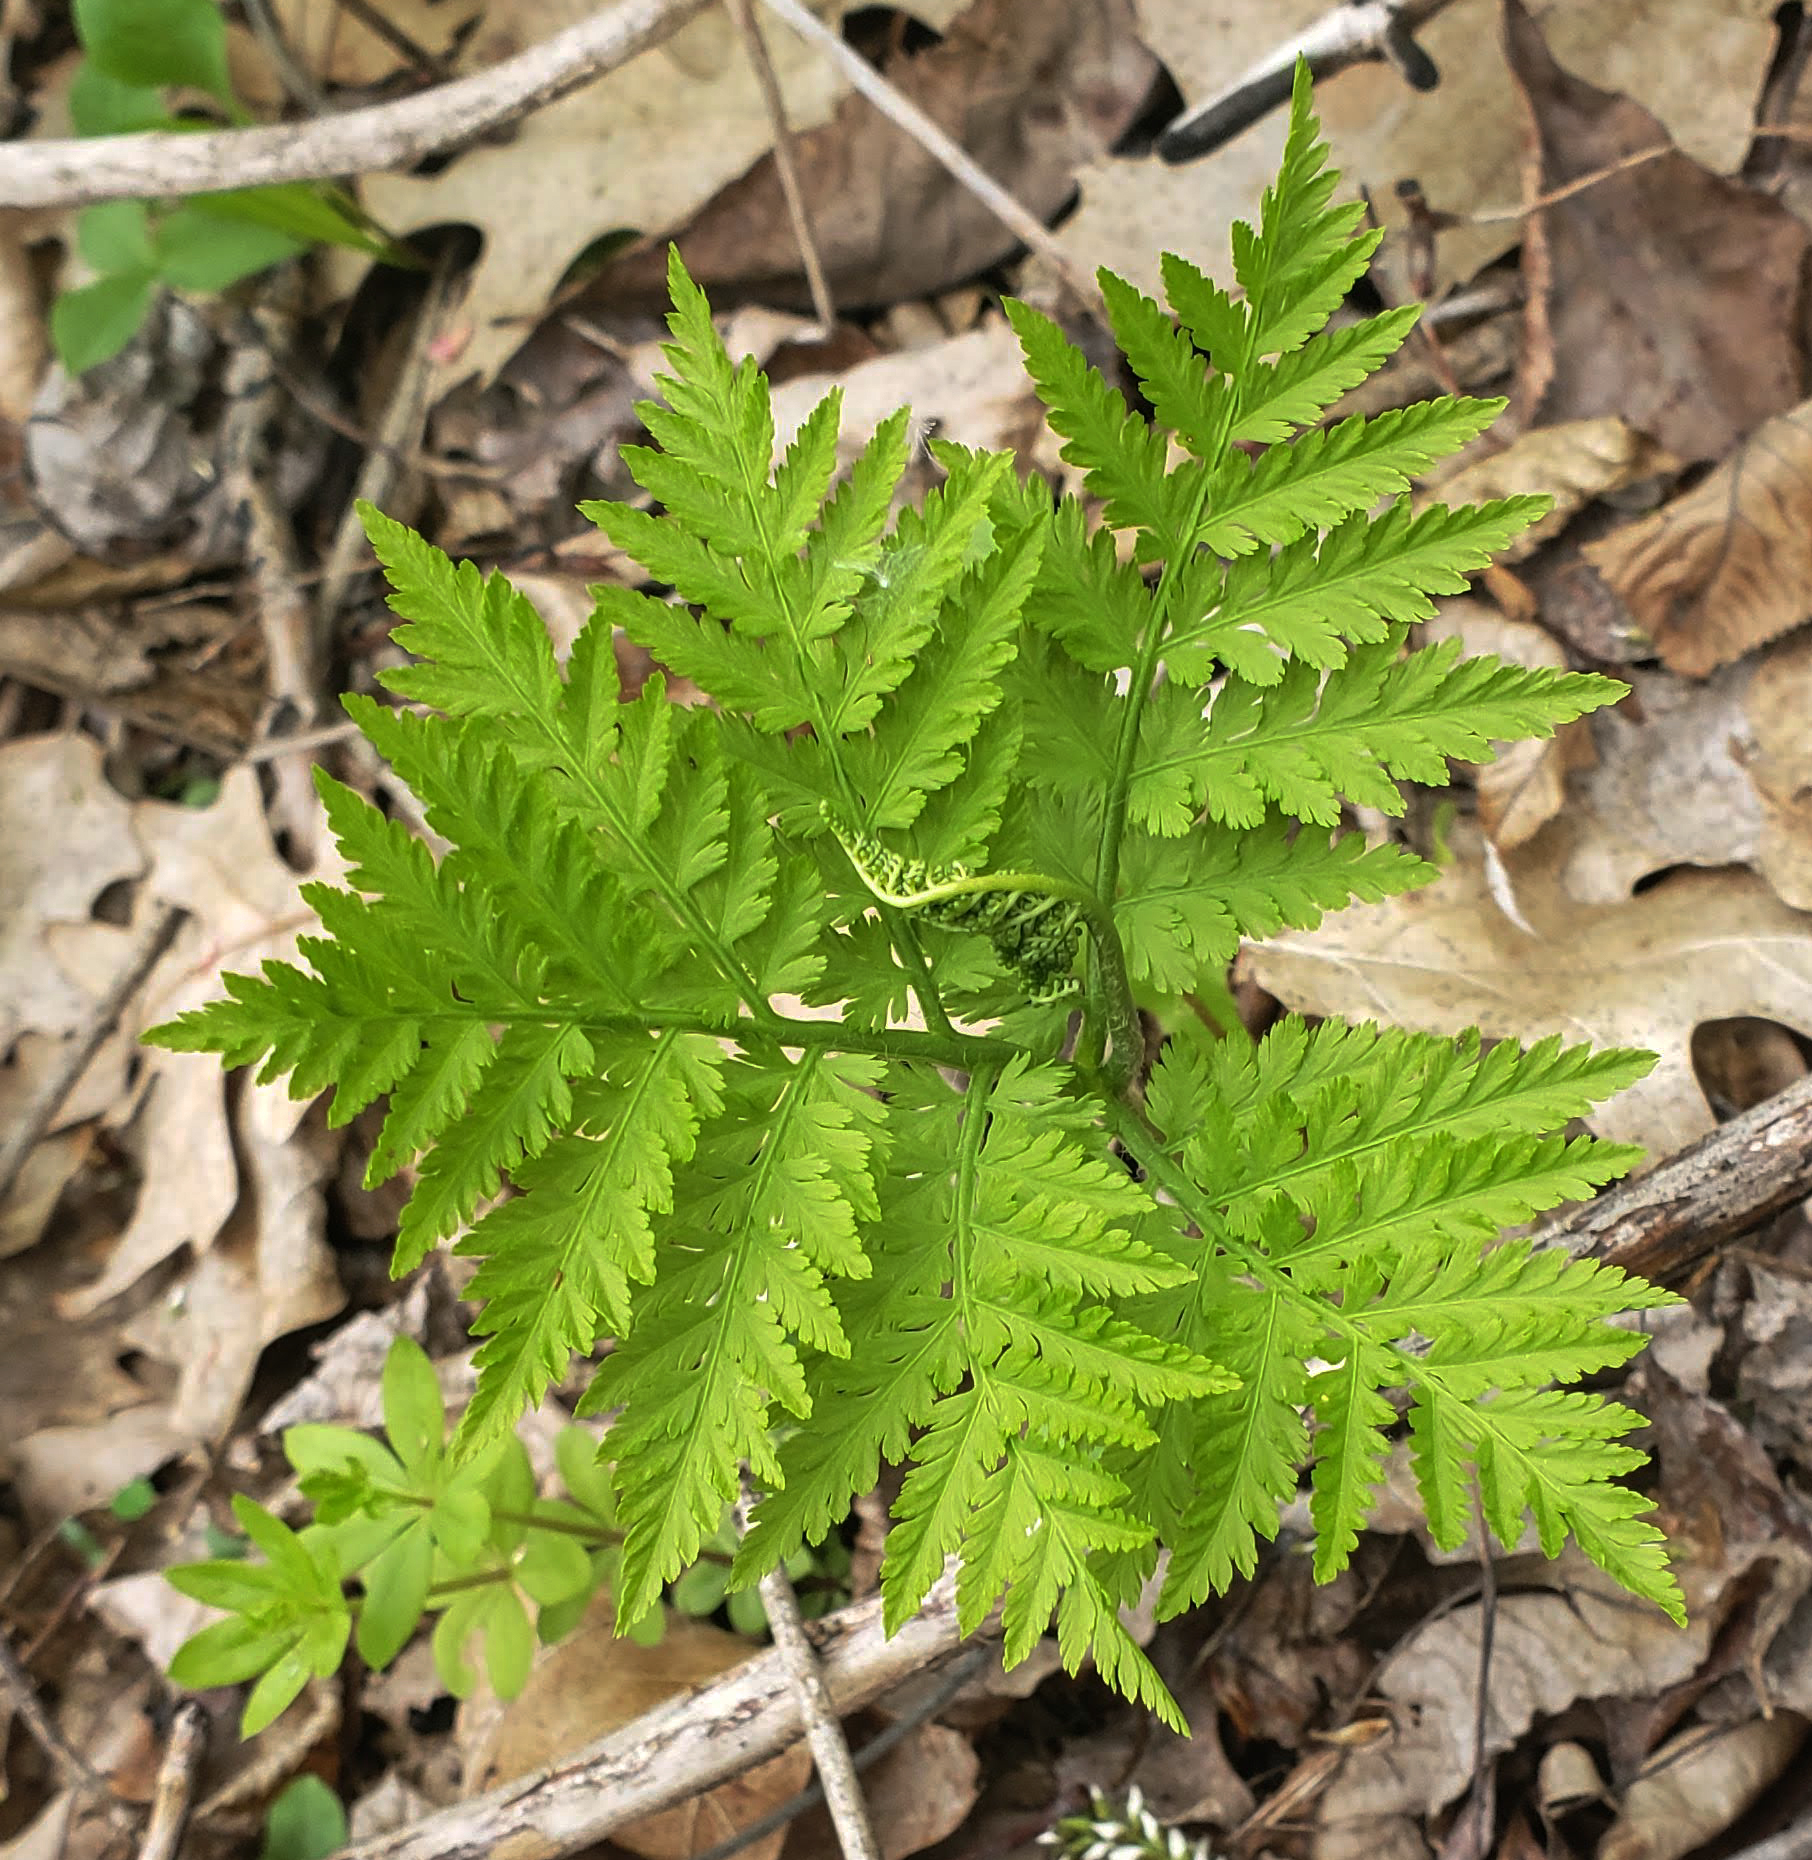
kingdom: Plantae
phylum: Tracheophyta
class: Polypodiopsida
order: Ophioglossales
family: Ophioglossaceae
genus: Botrypus
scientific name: Botrypus virginianus
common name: Common grapefern
